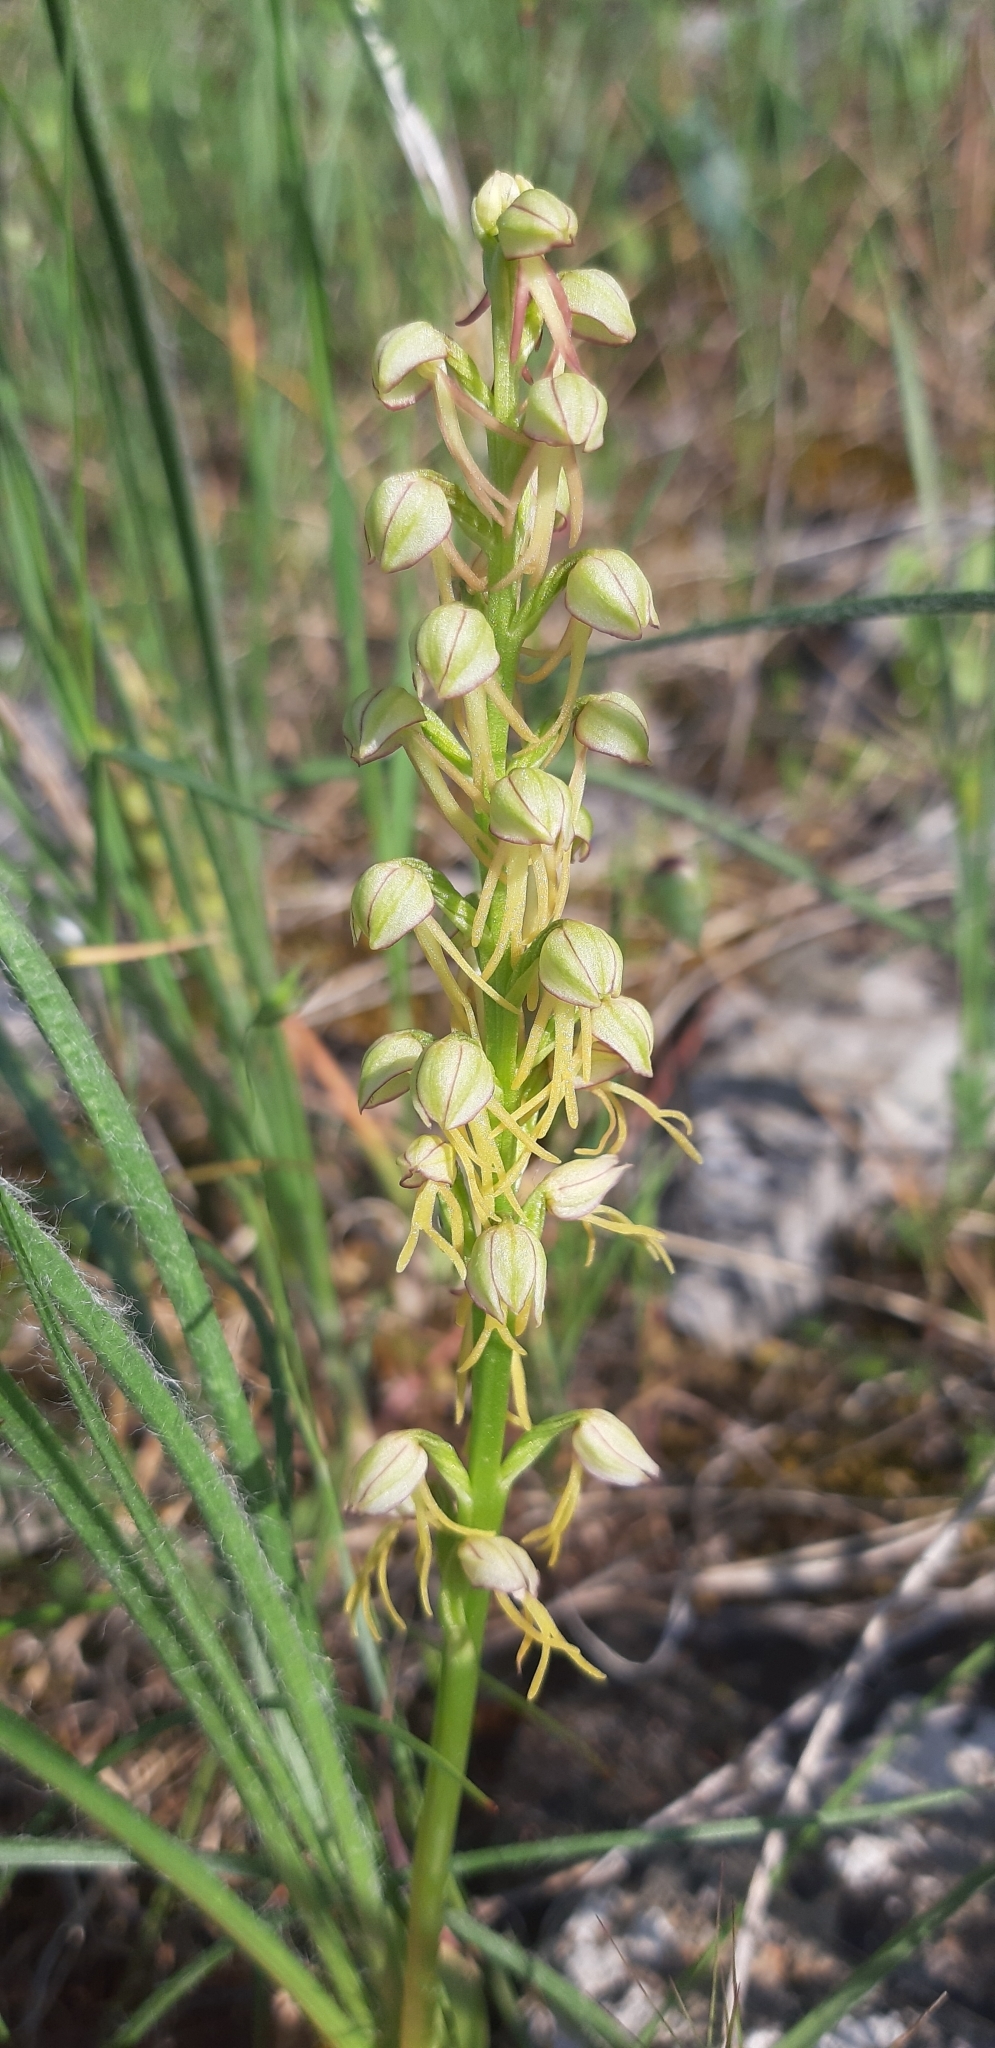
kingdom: Plantae
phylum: Tracheophyta
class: Liliopsida
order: Asparagales
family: Orchidaceae
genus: Orchis
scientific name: Orchis anthropophora
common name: Man orchid
